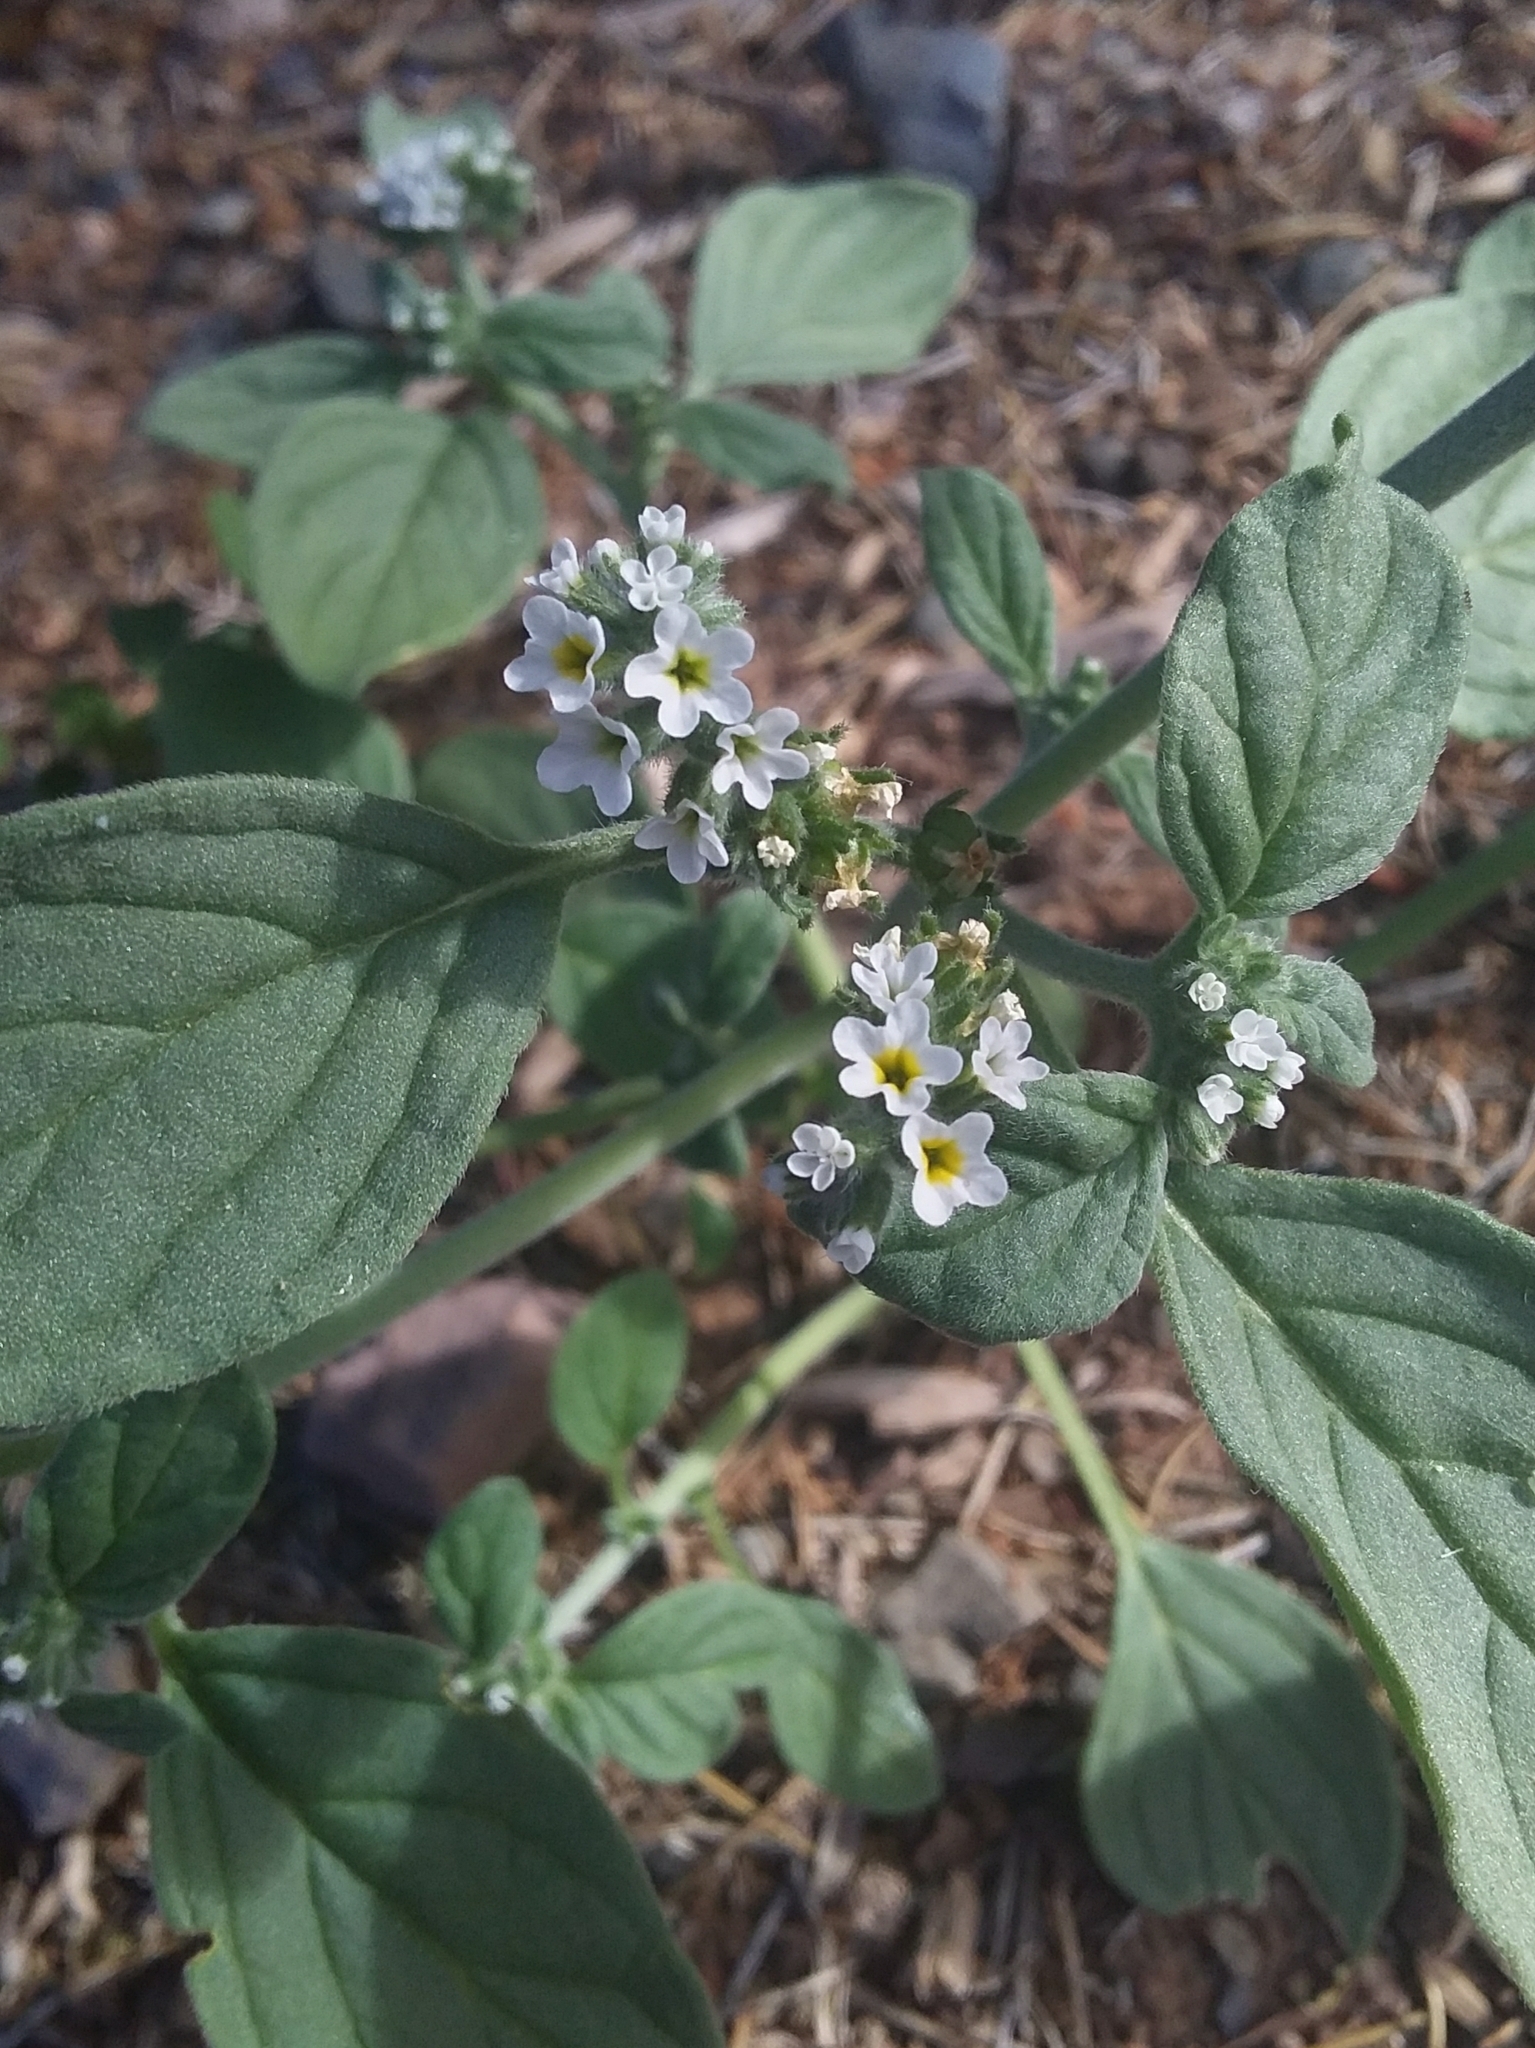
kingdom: Plantae
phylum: Tracheophyta
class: Magnoliopsida
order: Boraginales
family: Heliotropiaceae
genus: Heliotropium
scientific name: Heliotropium europaeum
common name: European heliotrope
